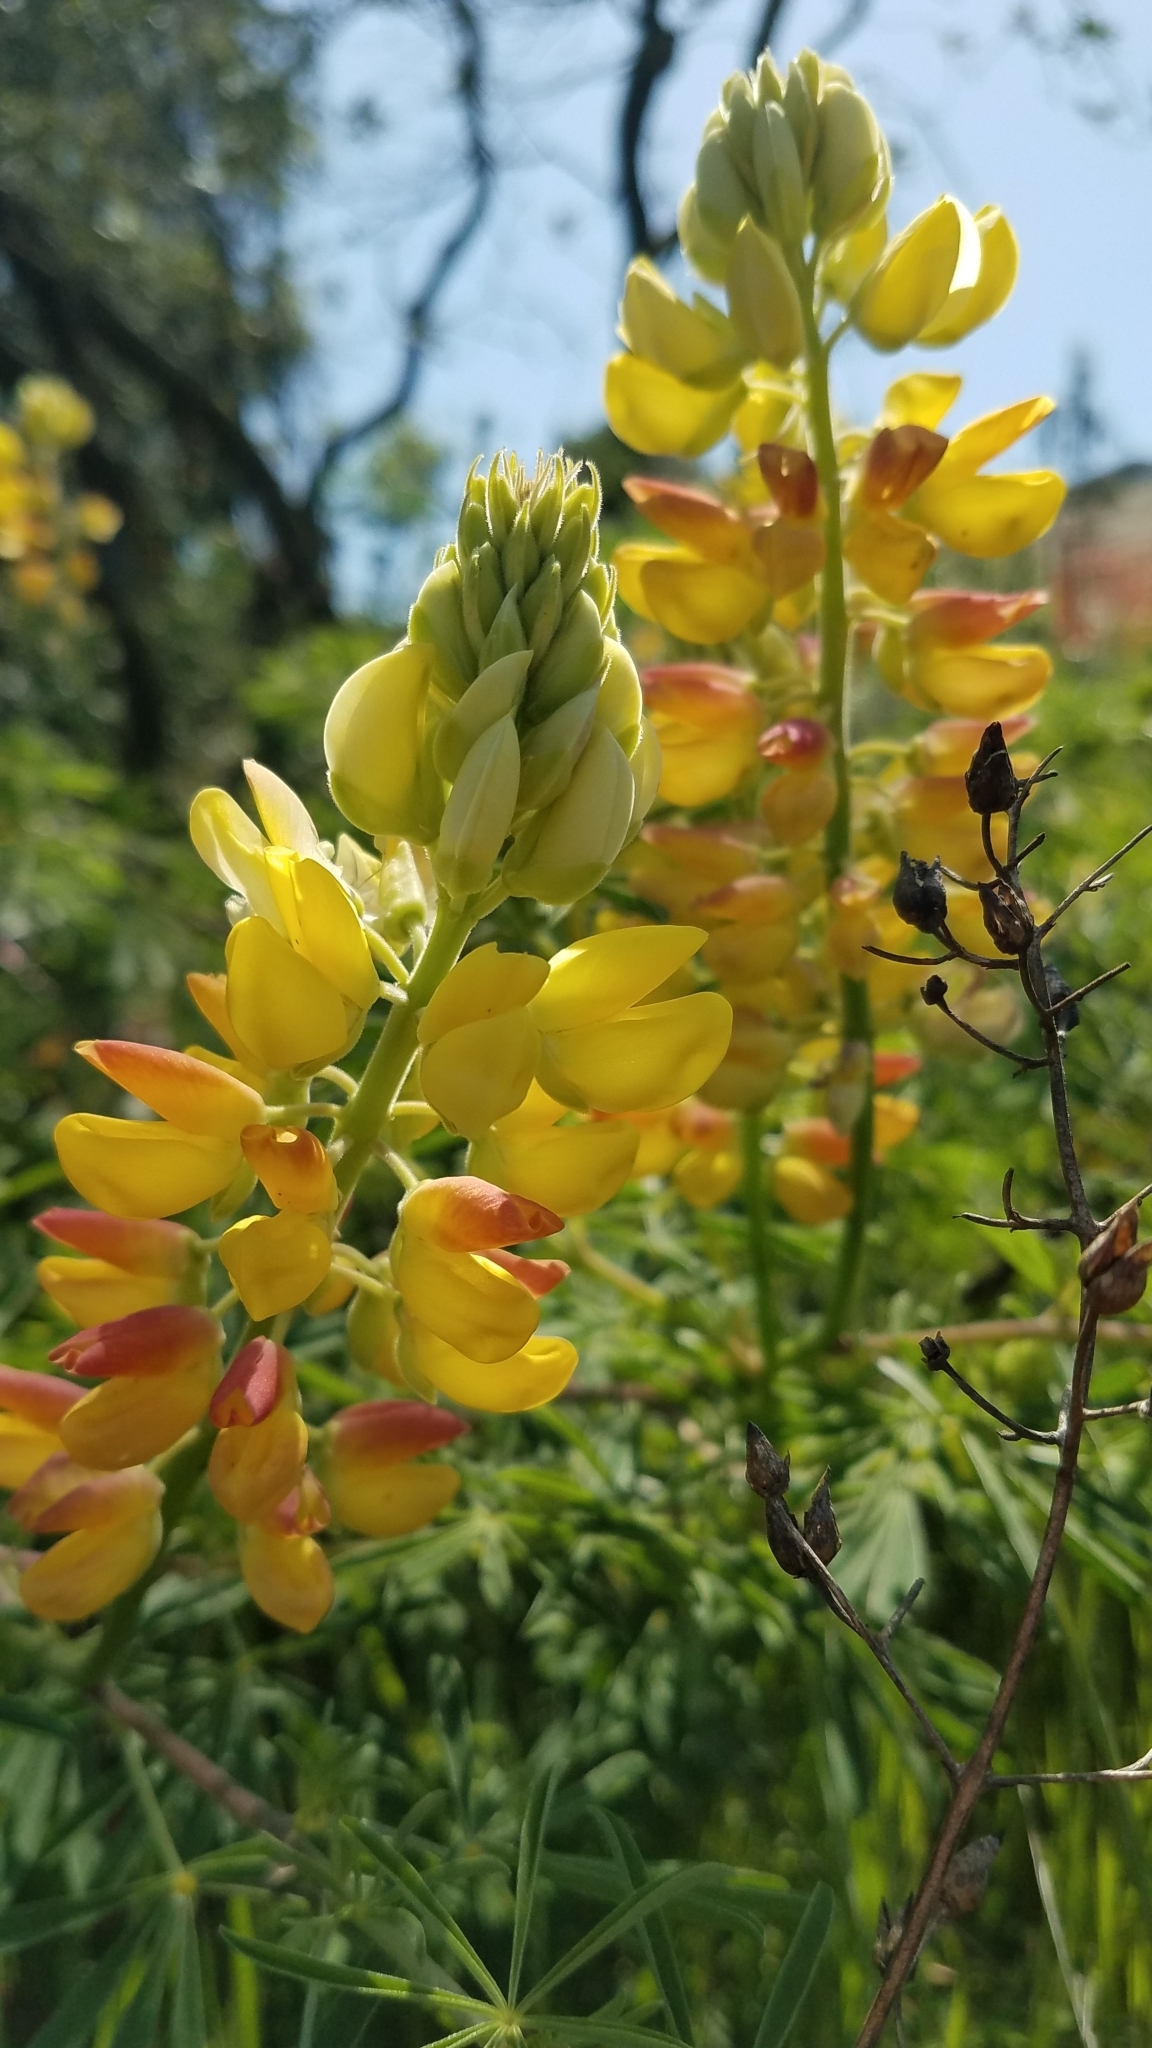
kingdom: Plantae
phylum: Tracheophyta
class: Magnoliopsida
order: Fabales
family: Fabaceae
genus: Lupinus
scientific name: Lupinus arboreus
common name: Yellow bush lupine
